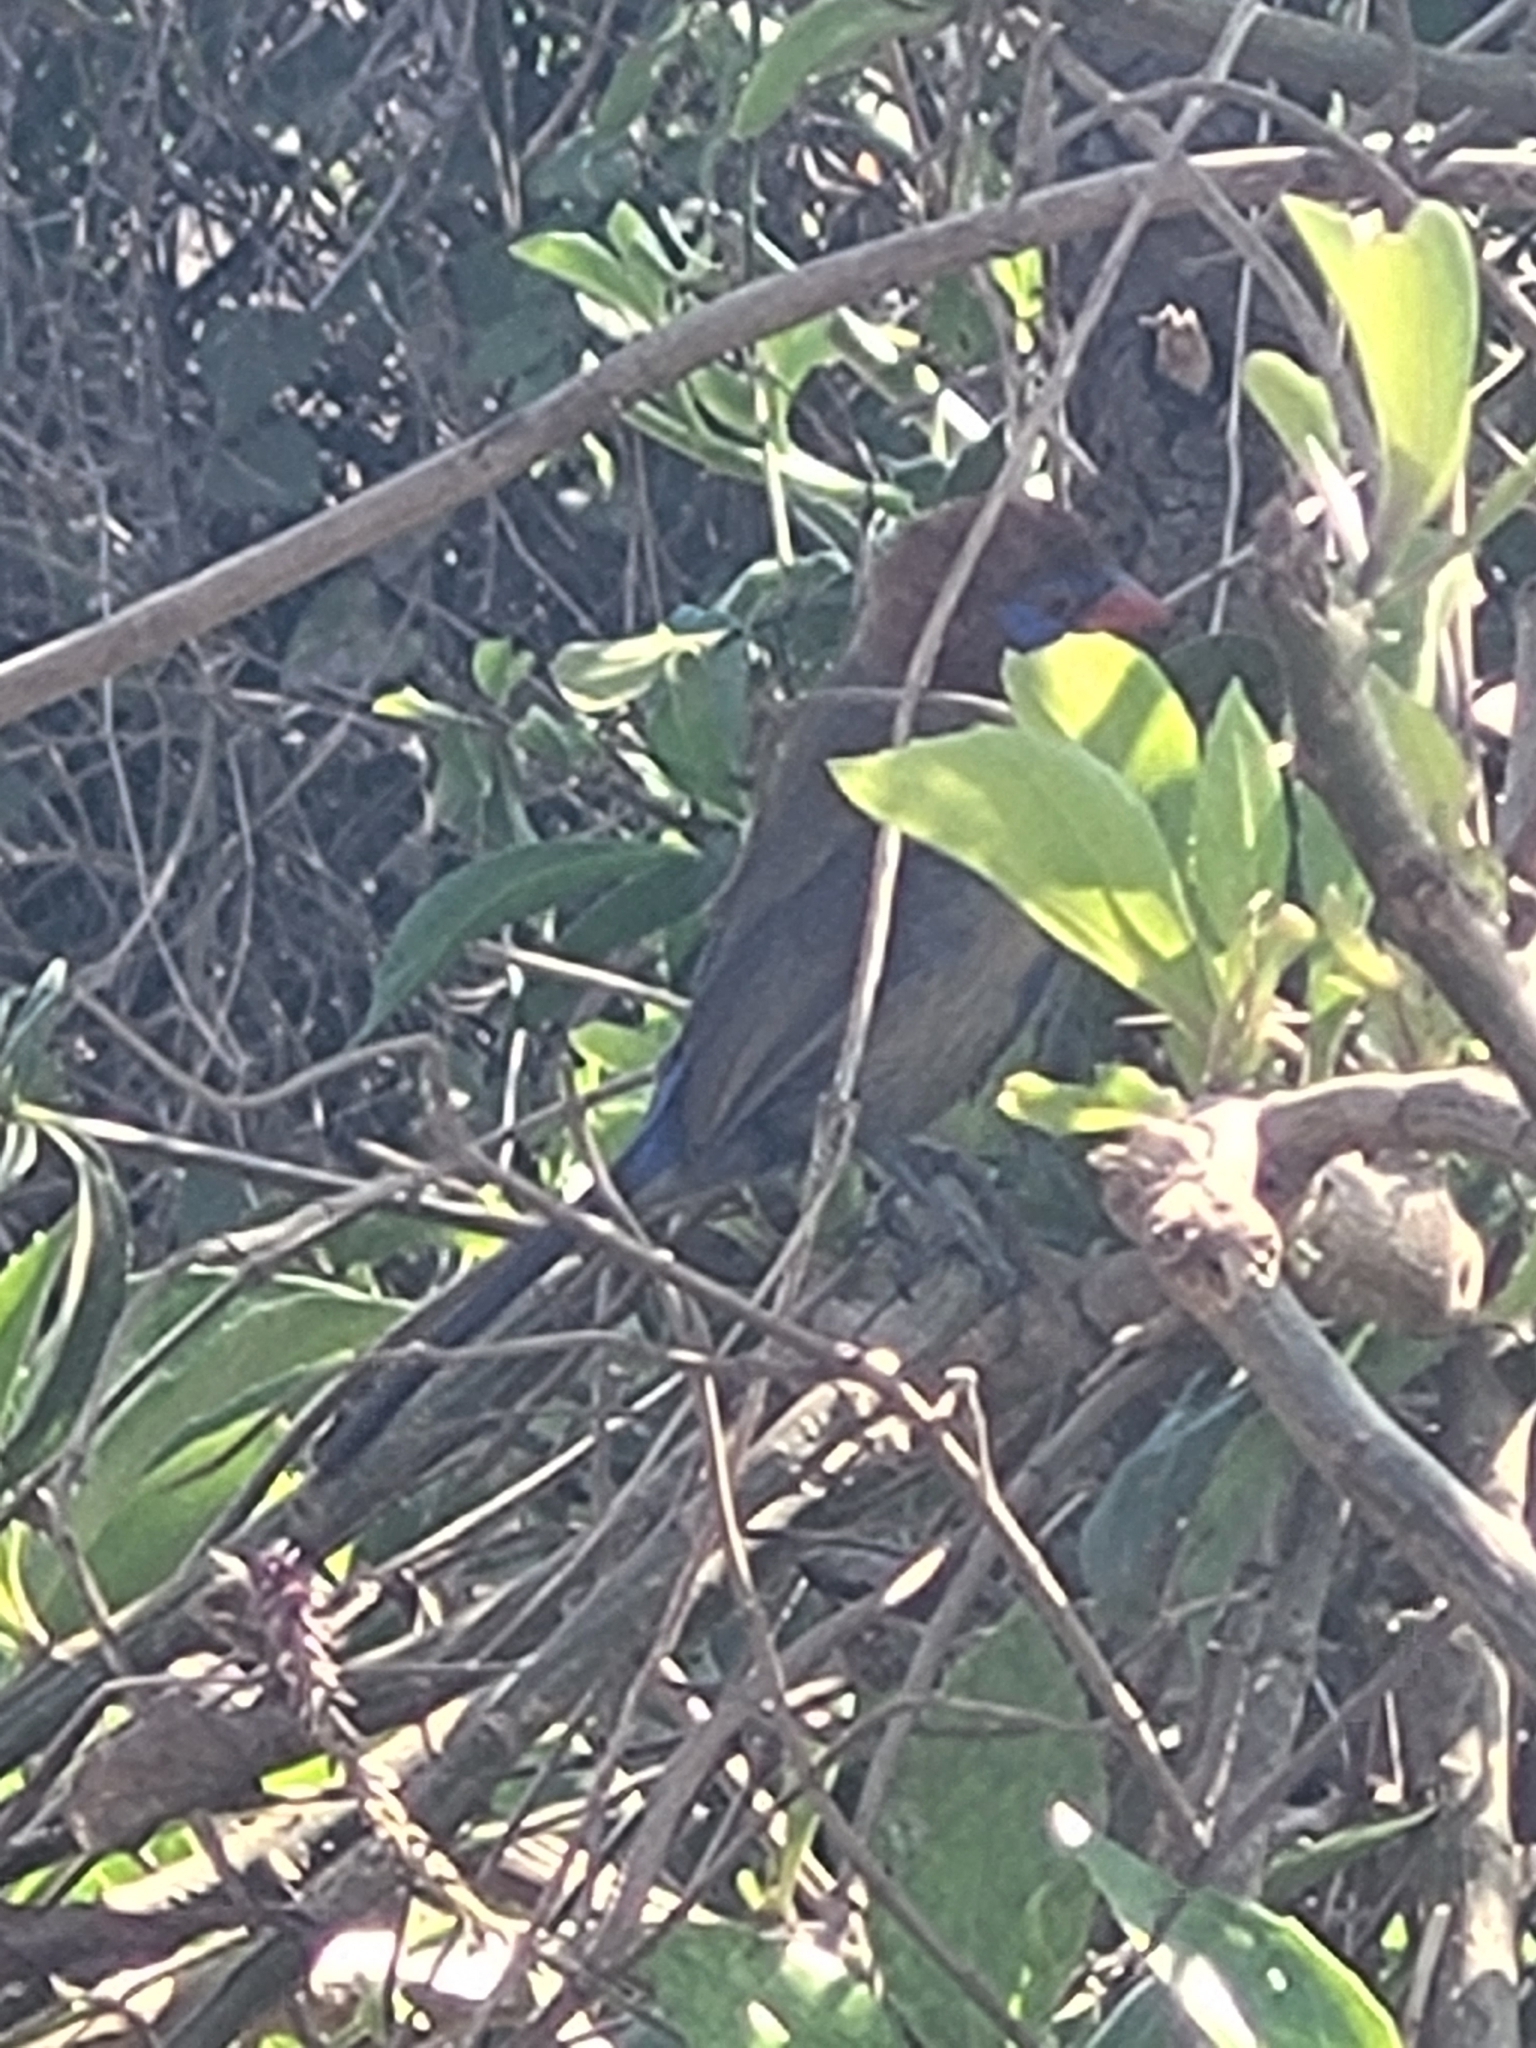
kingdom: Animalia
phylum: Chordata
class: Aves
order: Passeriformes
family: Estrildidae
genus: Uraeginthus
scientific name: Uraeginthus ianthinogaster
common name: Purple grenadier
